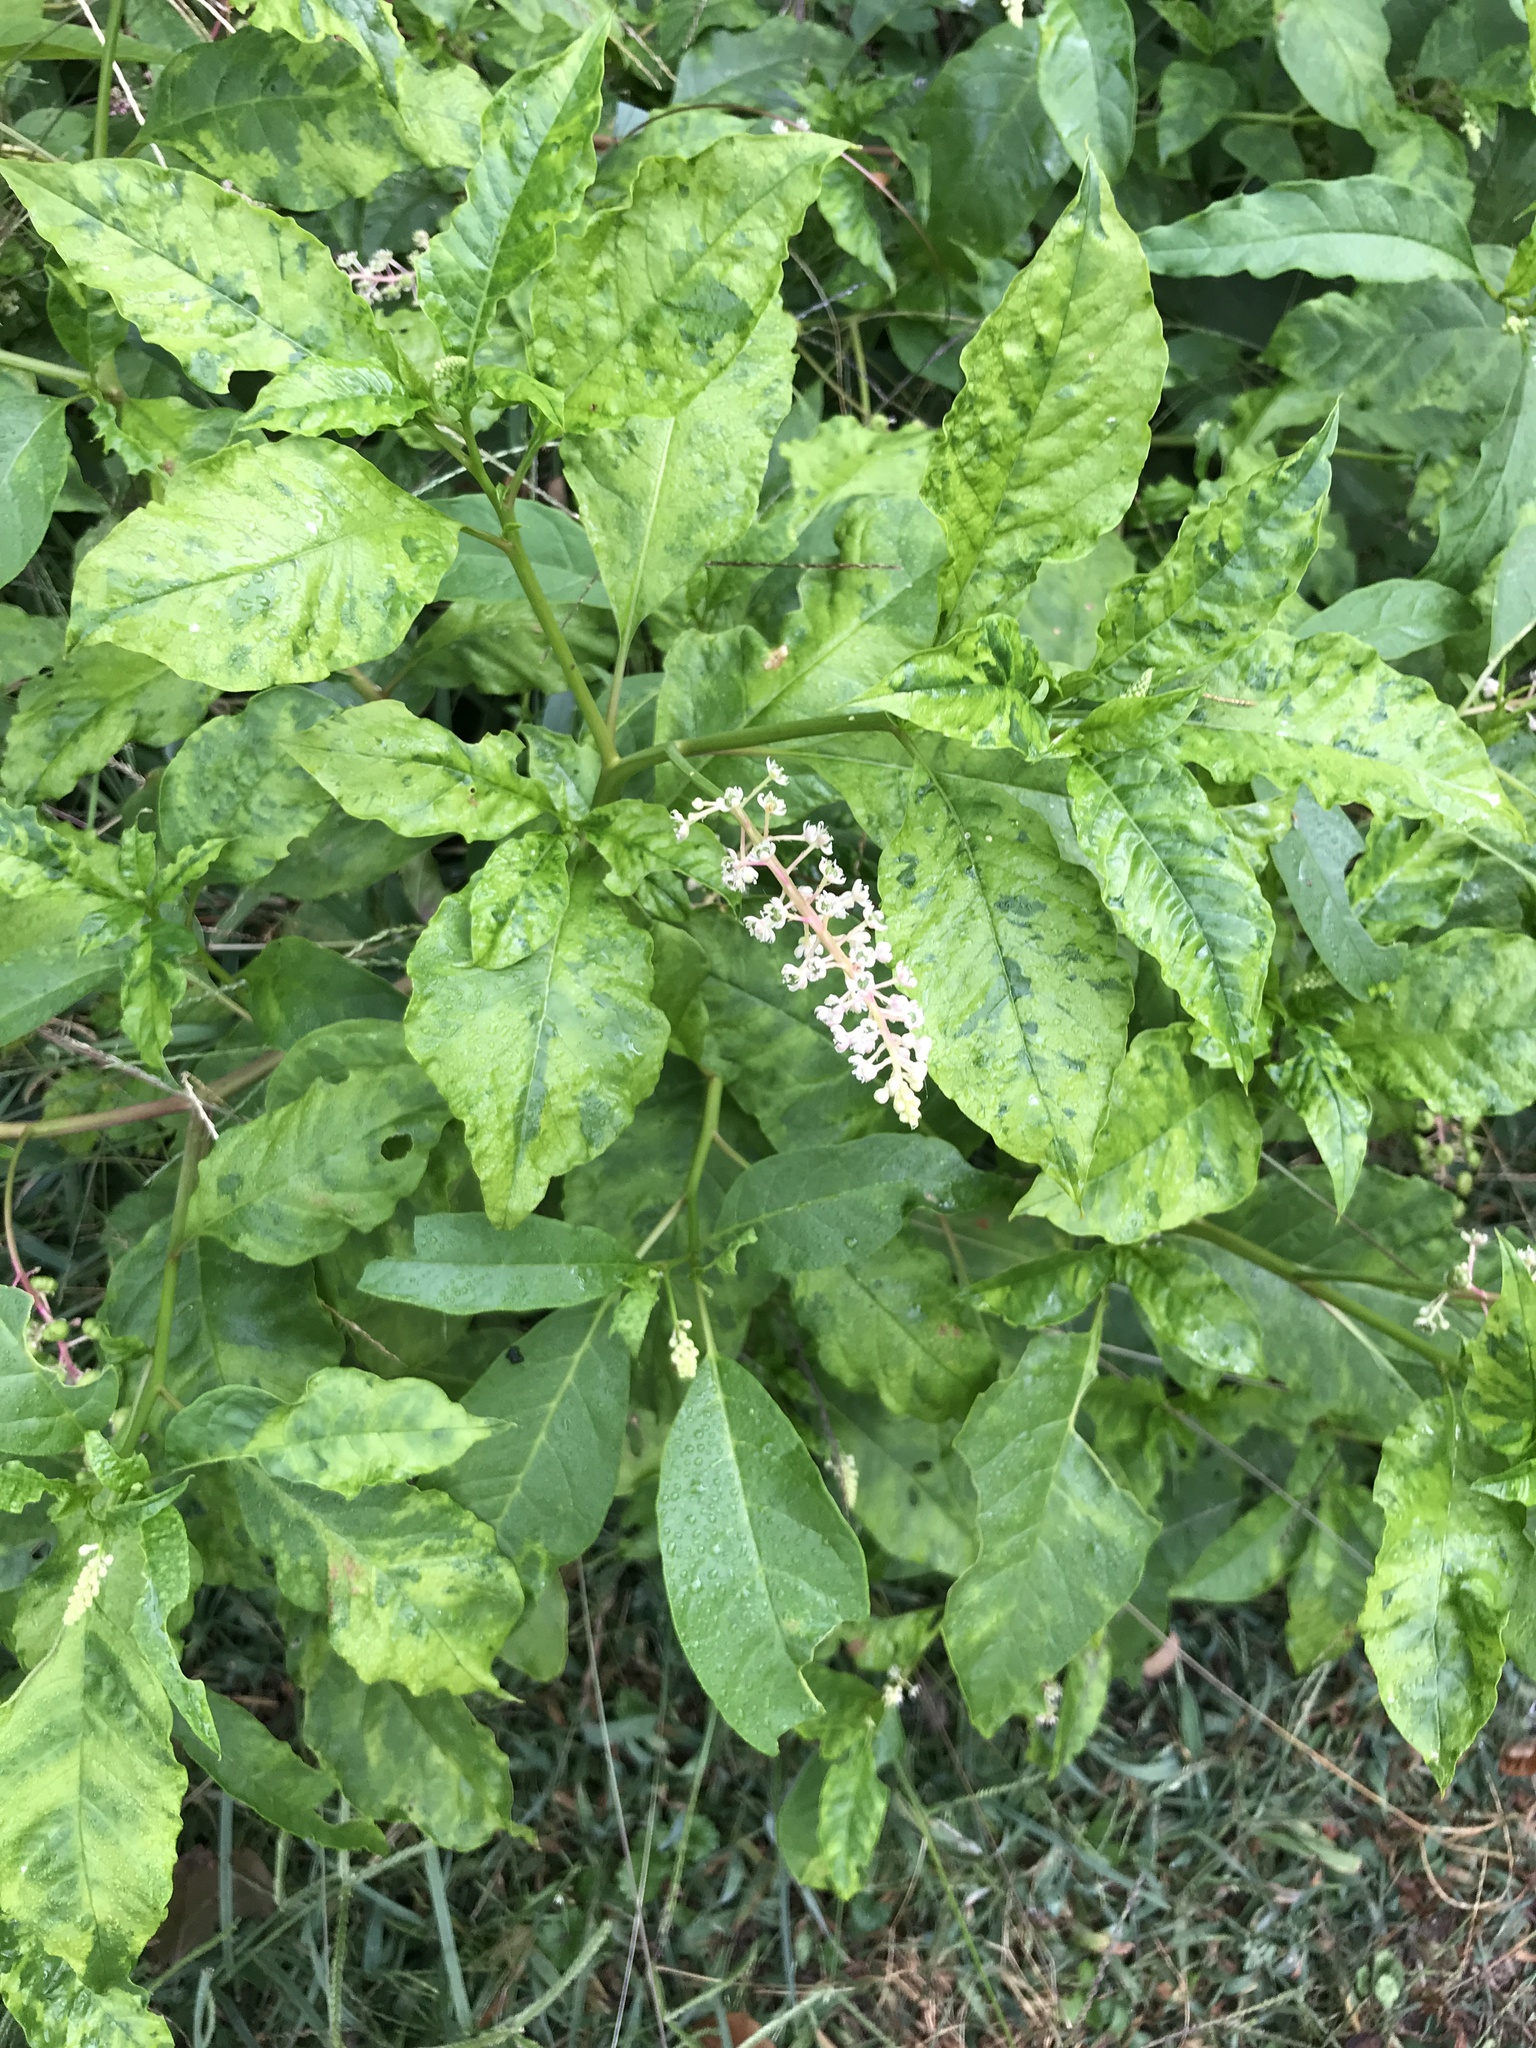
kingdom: Plantae
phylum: Tracheophyta
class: Magnoliopsida
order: Caryophyllales
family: Phytolaccaceae
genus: Phytolacca
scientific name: Phytolacca americana
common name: American pokeweed
